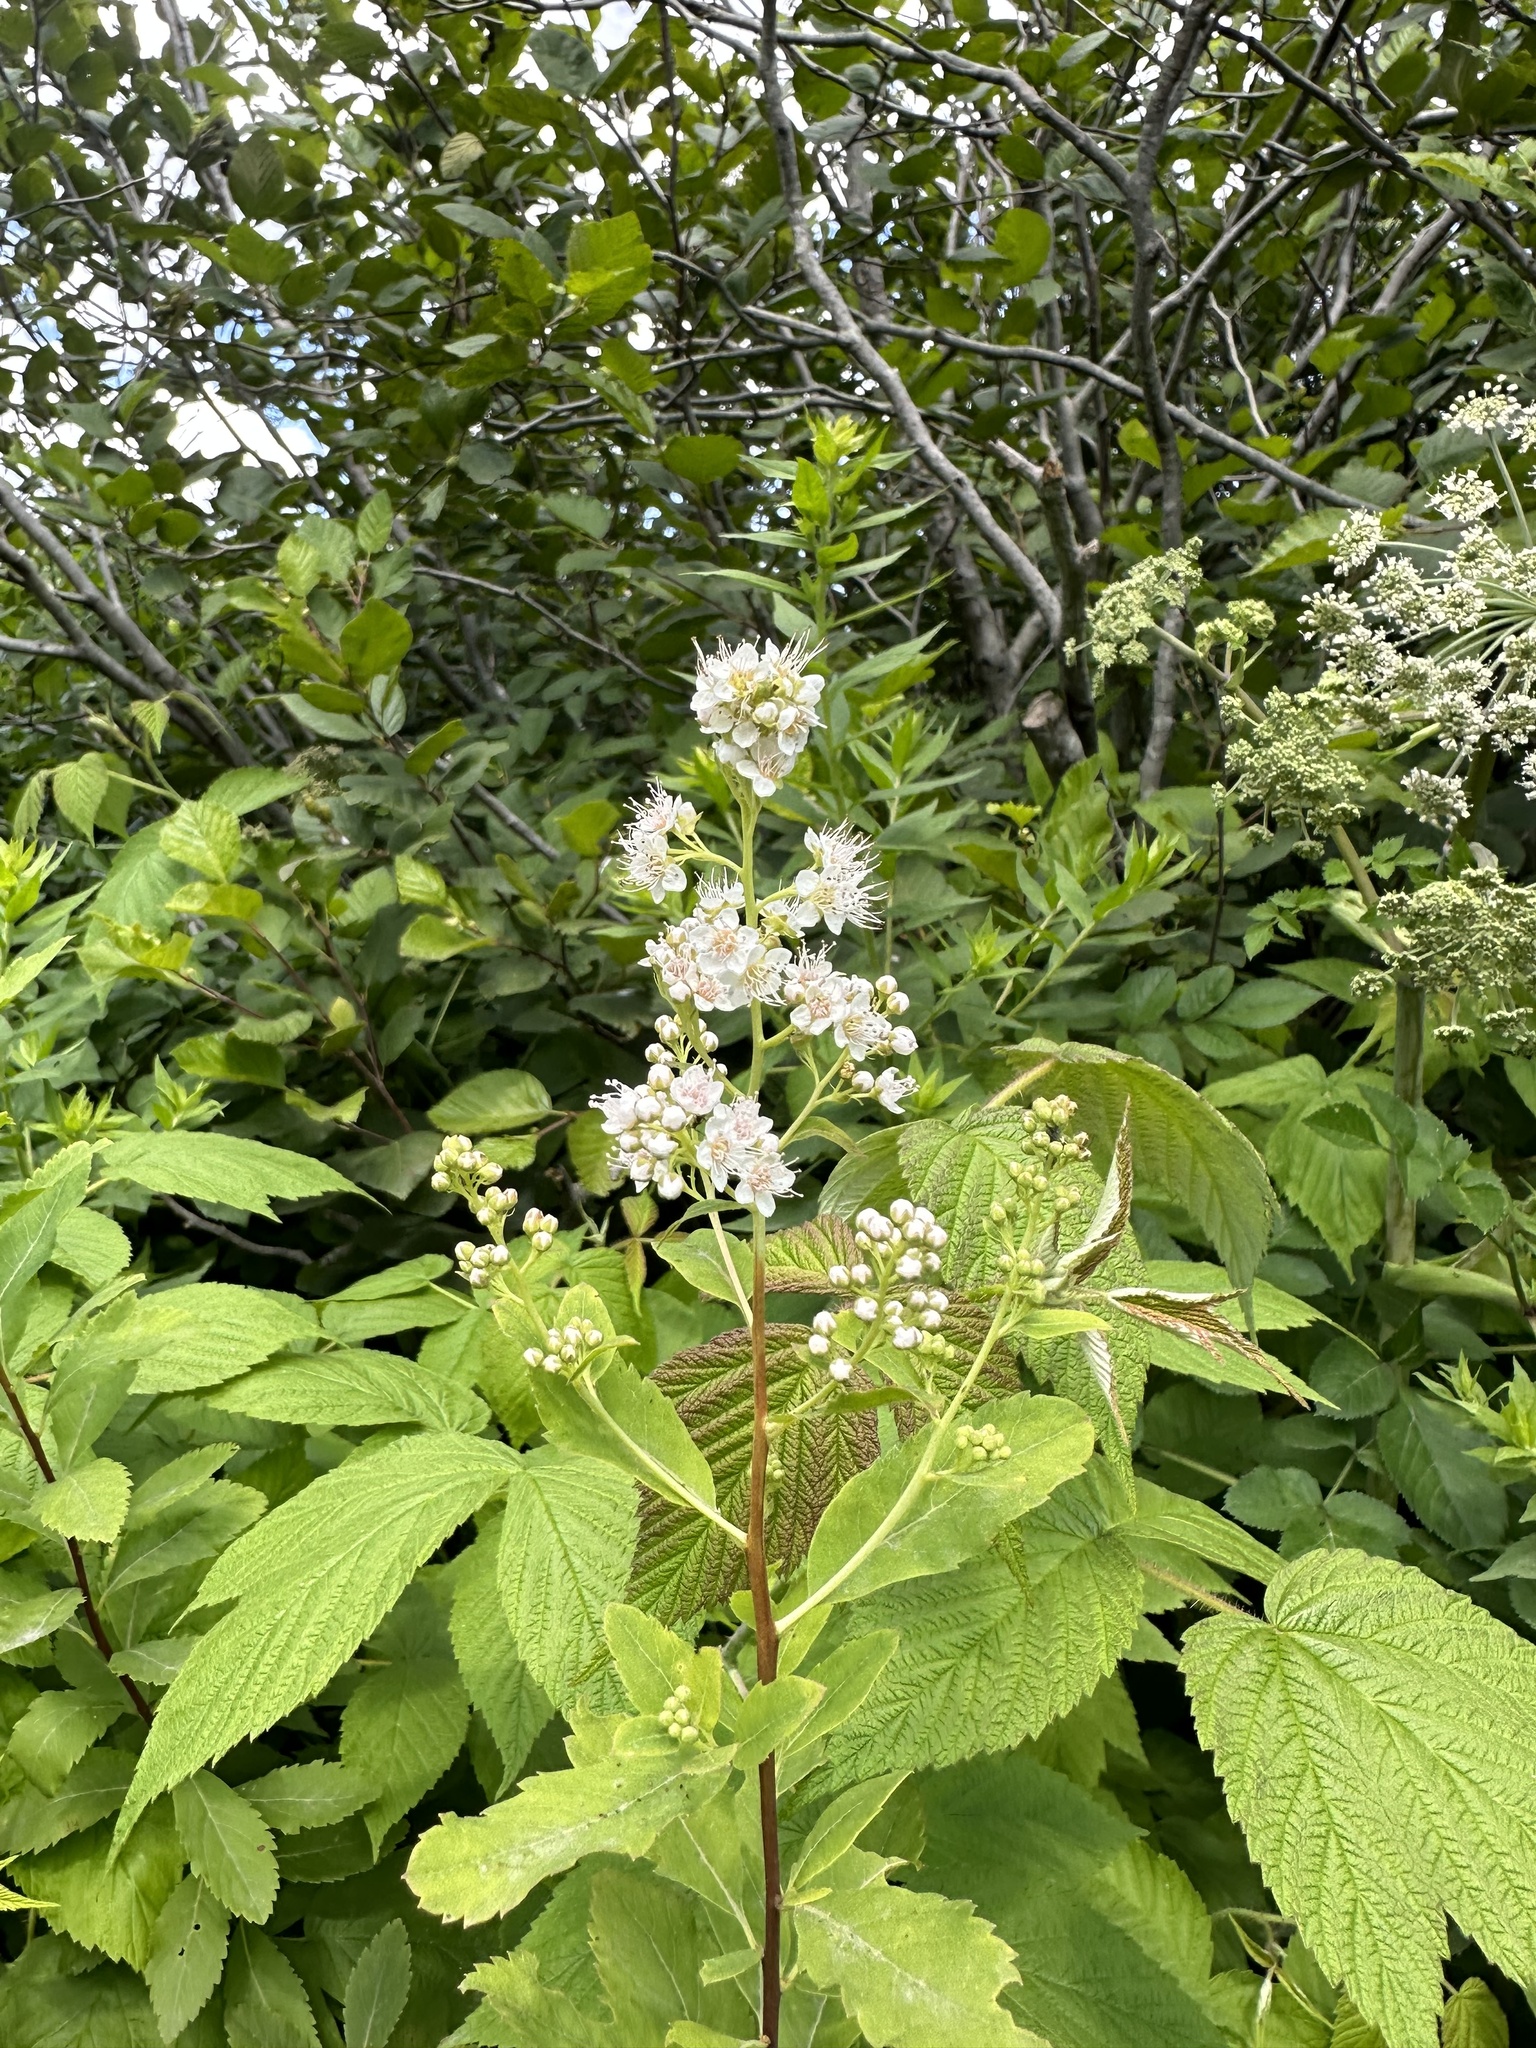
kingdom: Plantae
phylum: Tracheophyta
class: Magnoliopsida
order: Rosales
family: Rosaceae
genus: Spiraea
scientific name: Spiraea alba
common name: Pale bridewort
